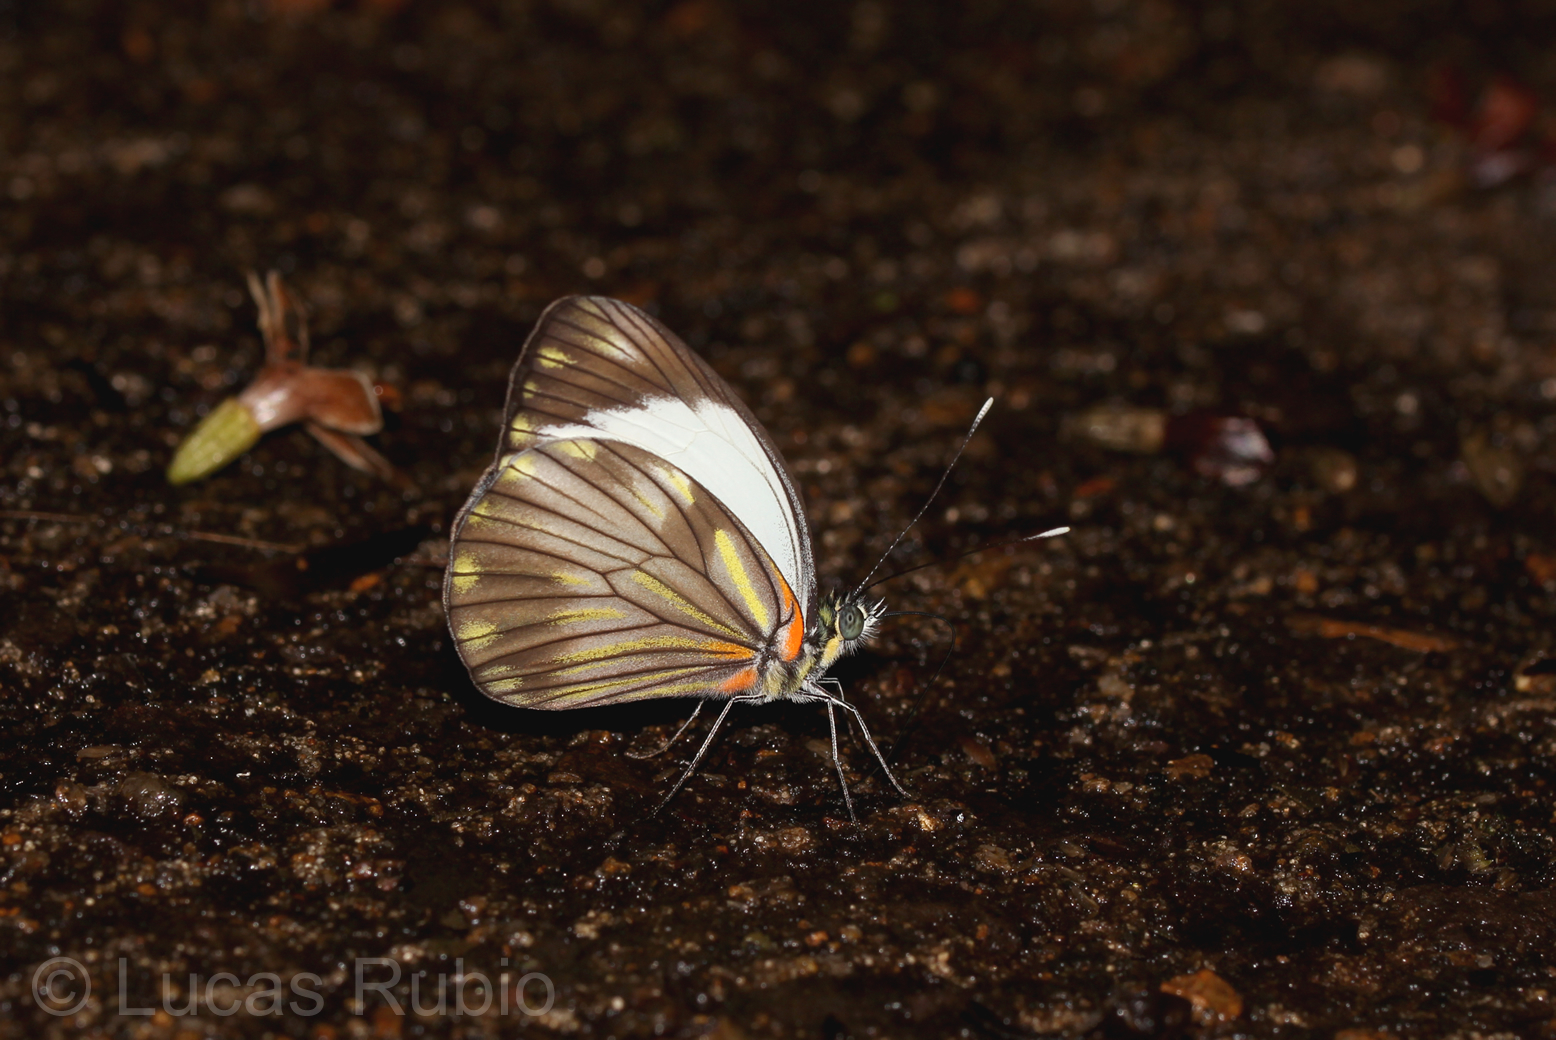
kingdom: Animalia
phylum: Arthropoda
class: Insecta
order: Lepidoptera
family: Pieridae
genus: Pieriballia
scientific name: Pieriballia viardi
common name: Painted white
